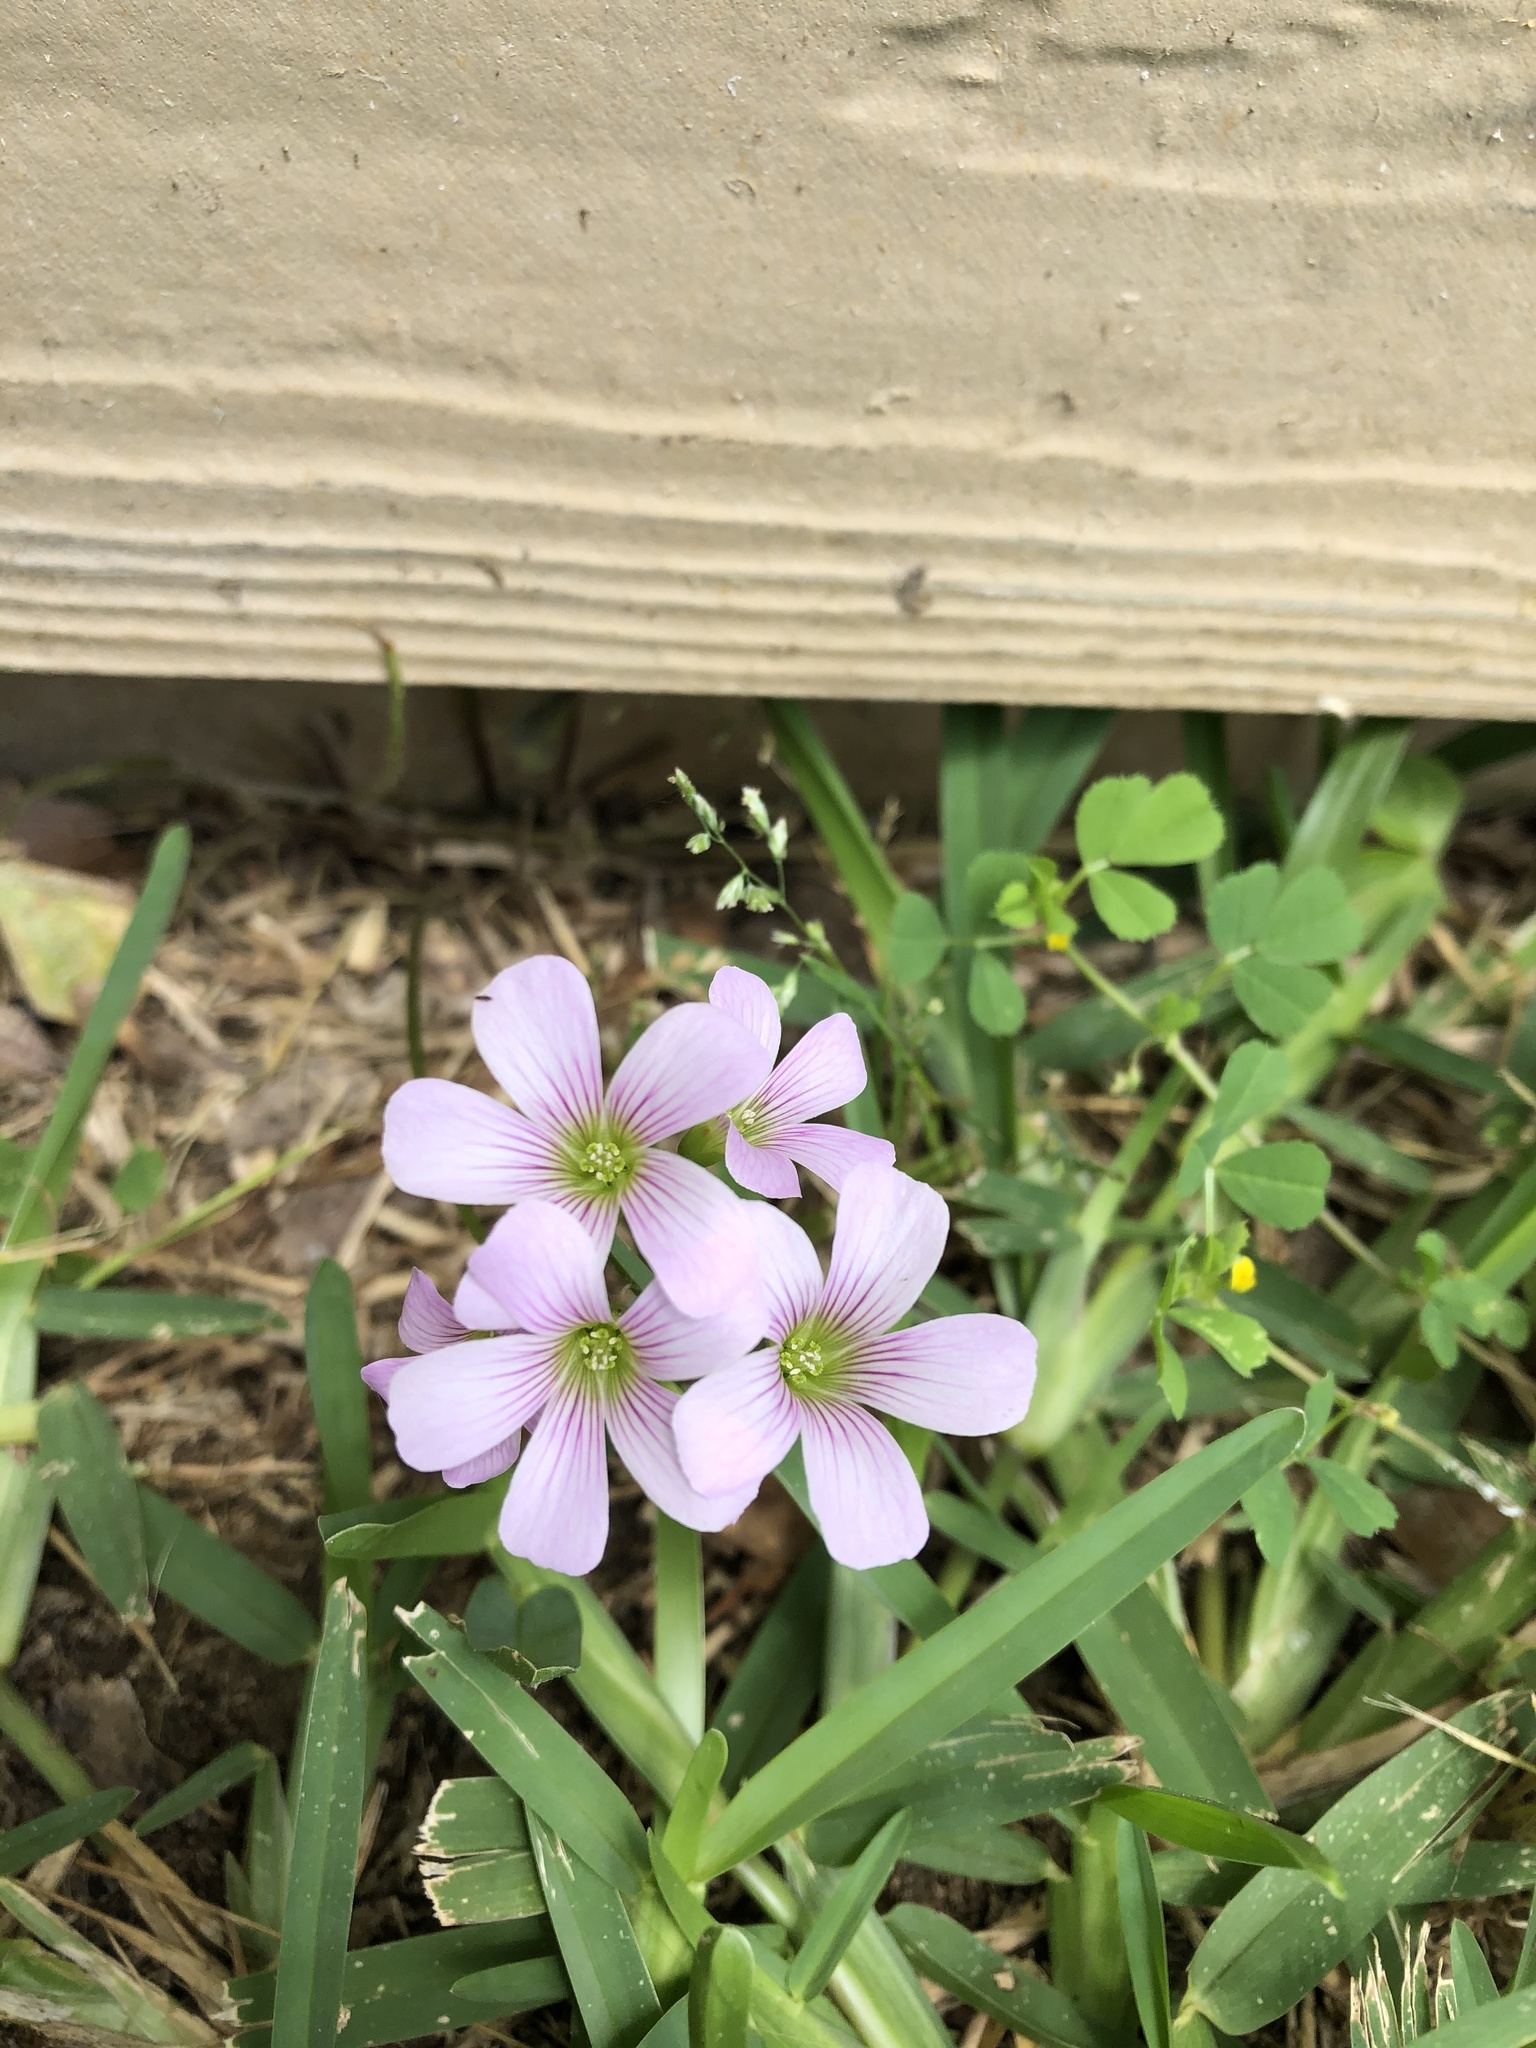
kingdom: Plantae
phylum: Tracheophyta
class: Magnoliopsida
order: Oxalidales
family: Oxalidaceae
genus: Oxalis
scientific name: Oxalis debilis
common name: Large-flowered pink-sorrel
